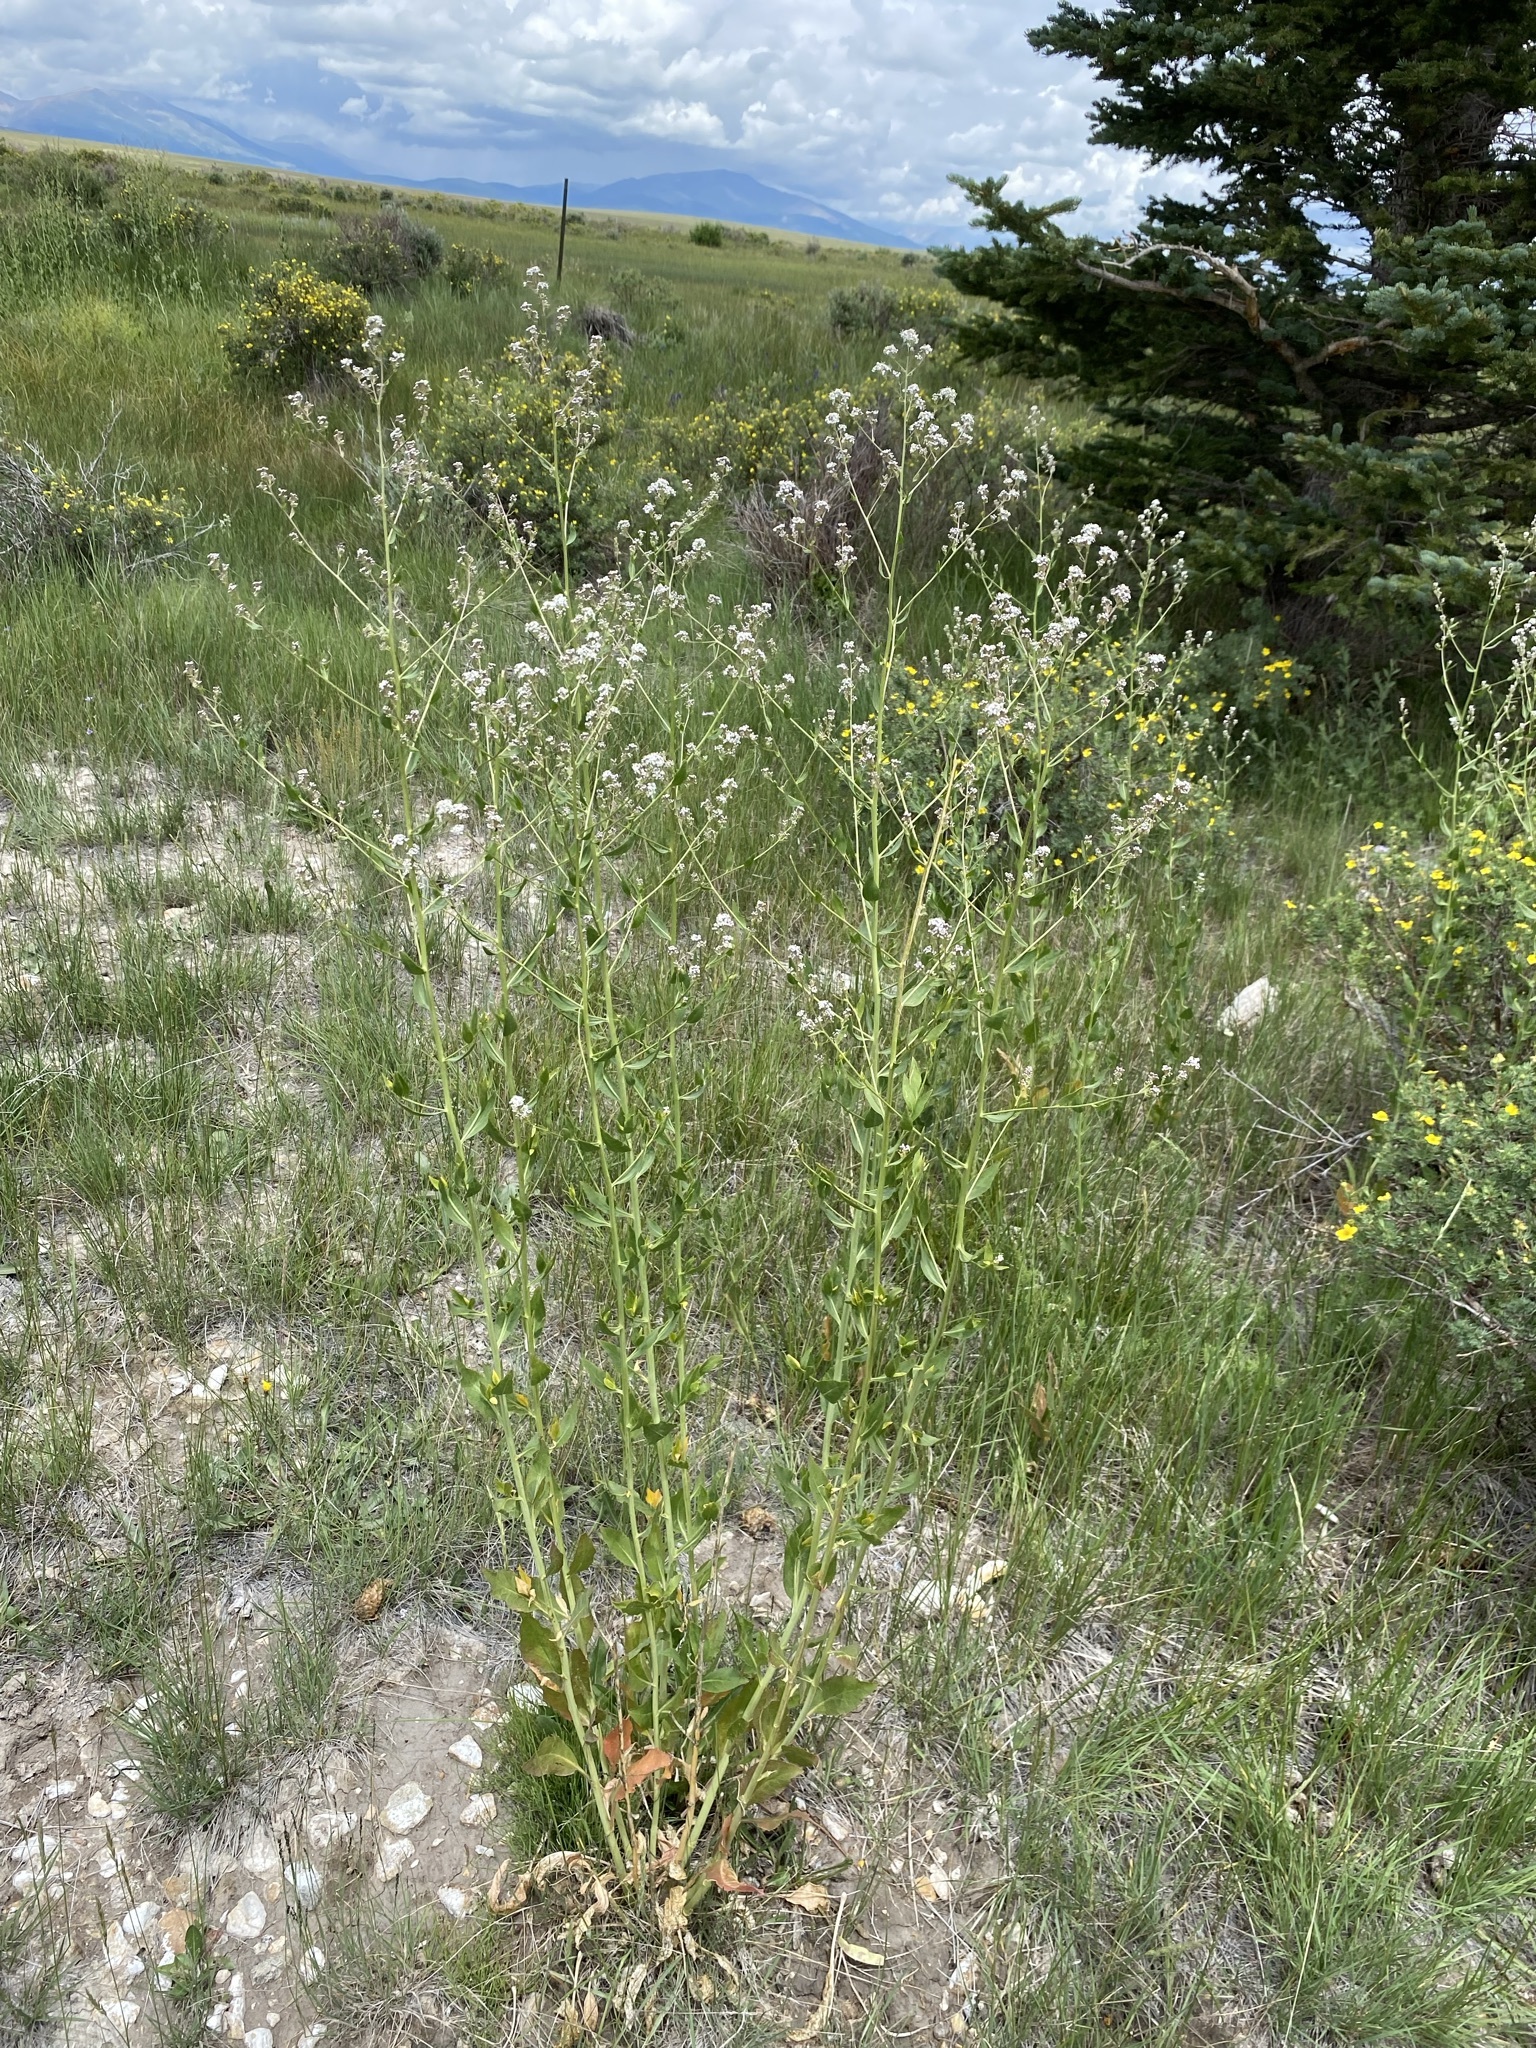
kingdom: Plantae
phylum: Tracheophyta
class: Magnoliopsida
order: Brassicales
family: Brassicaceae
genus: Lepidium
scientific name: Lepidium latifolium
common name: Dittander
